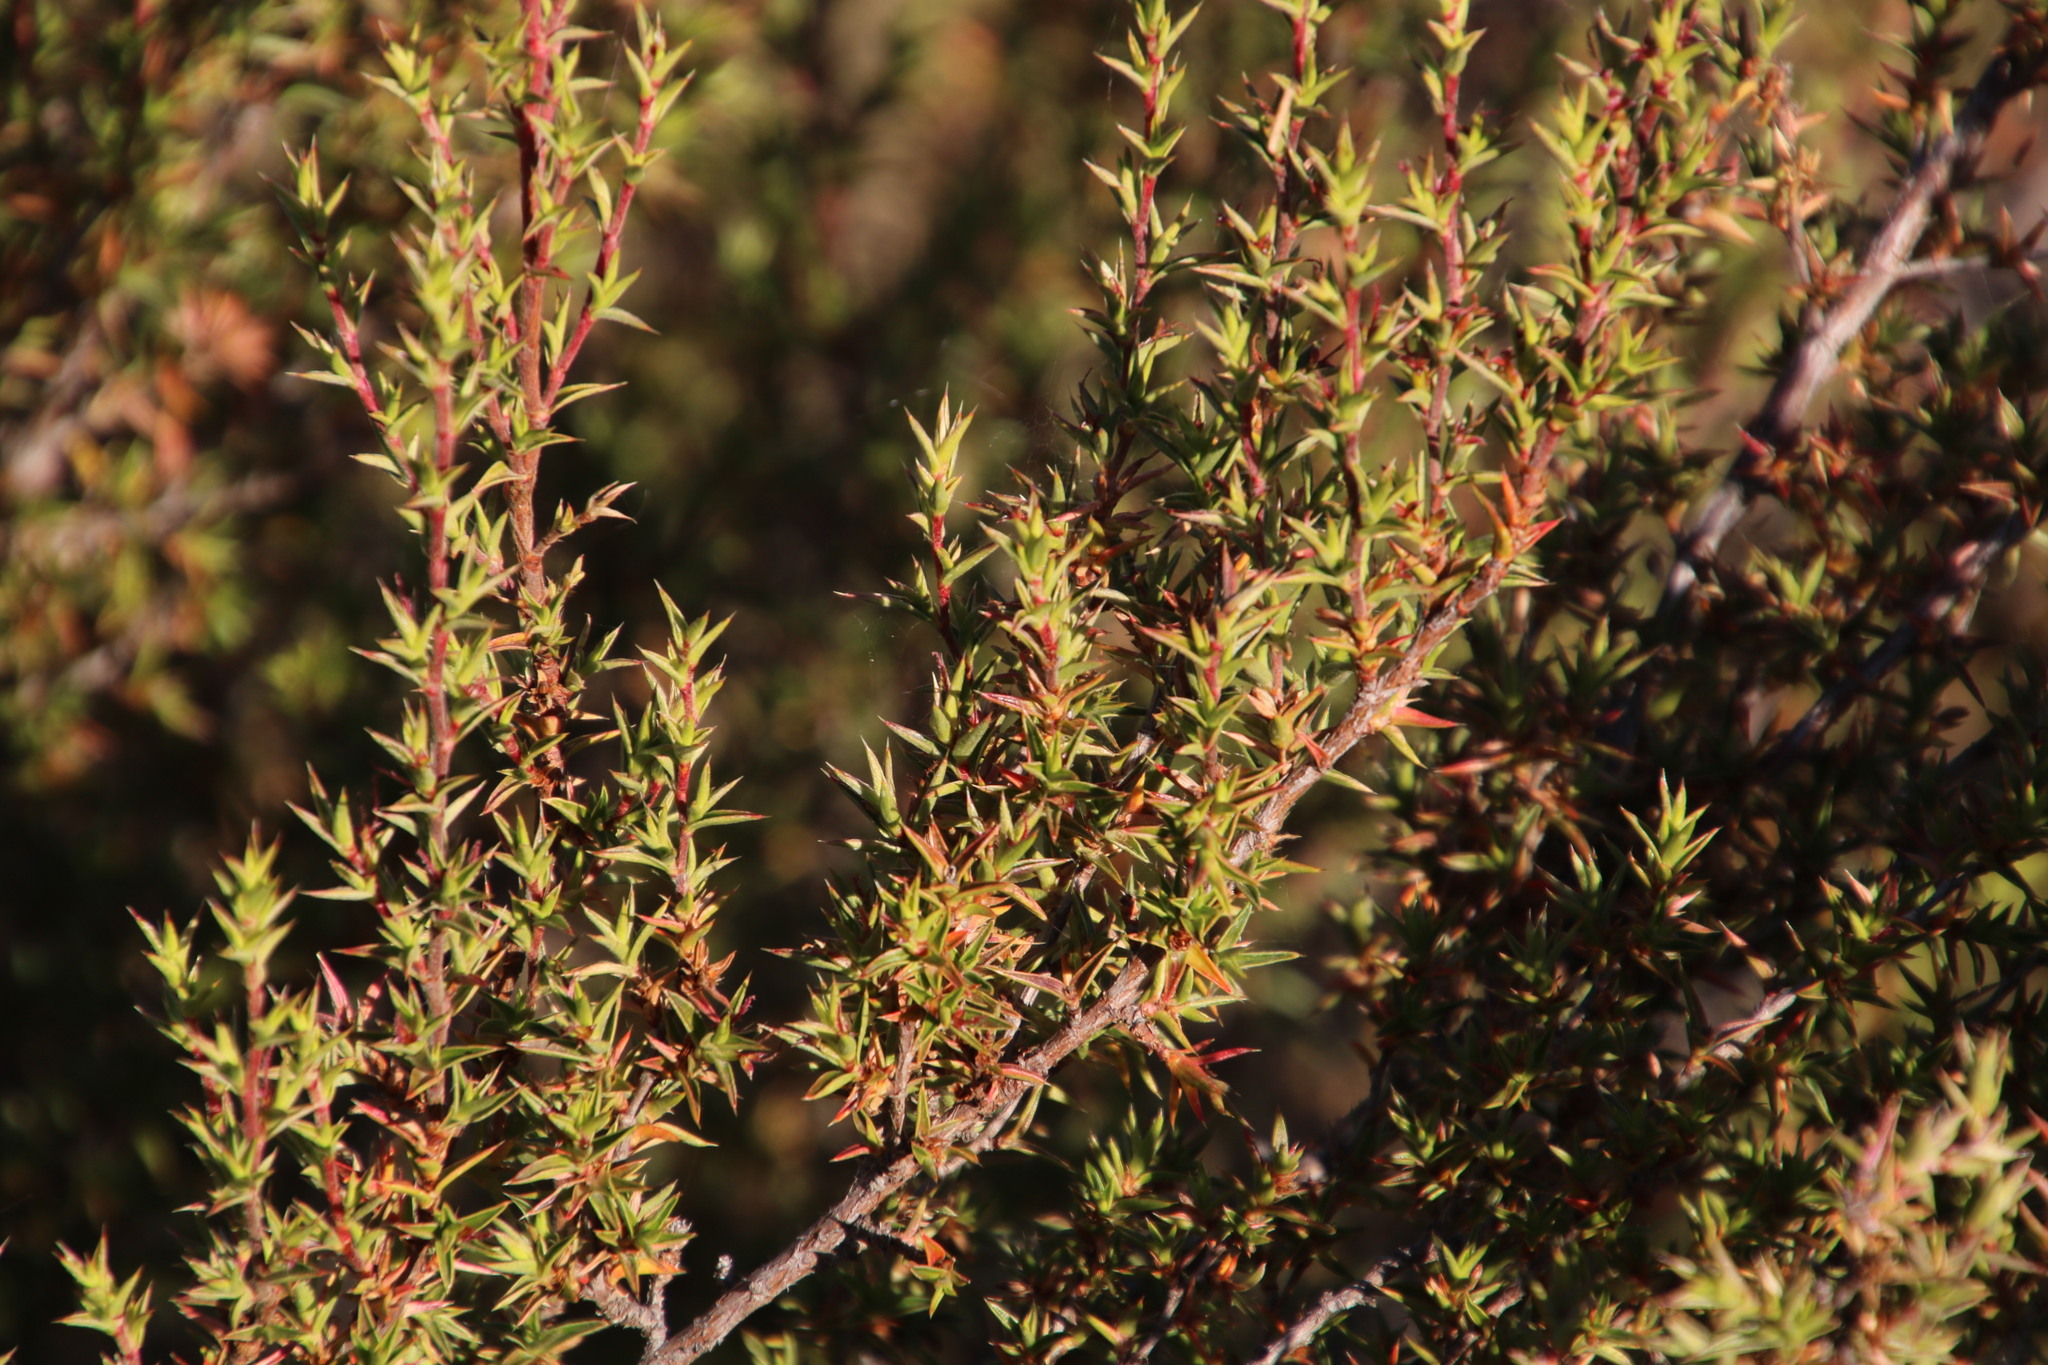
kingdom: Plantae
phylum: Tracheophyta
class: Magnoliopsida
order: Rosales
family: Rosaceae
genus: Cliffortia
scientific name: Cliffortia ruscifolia
